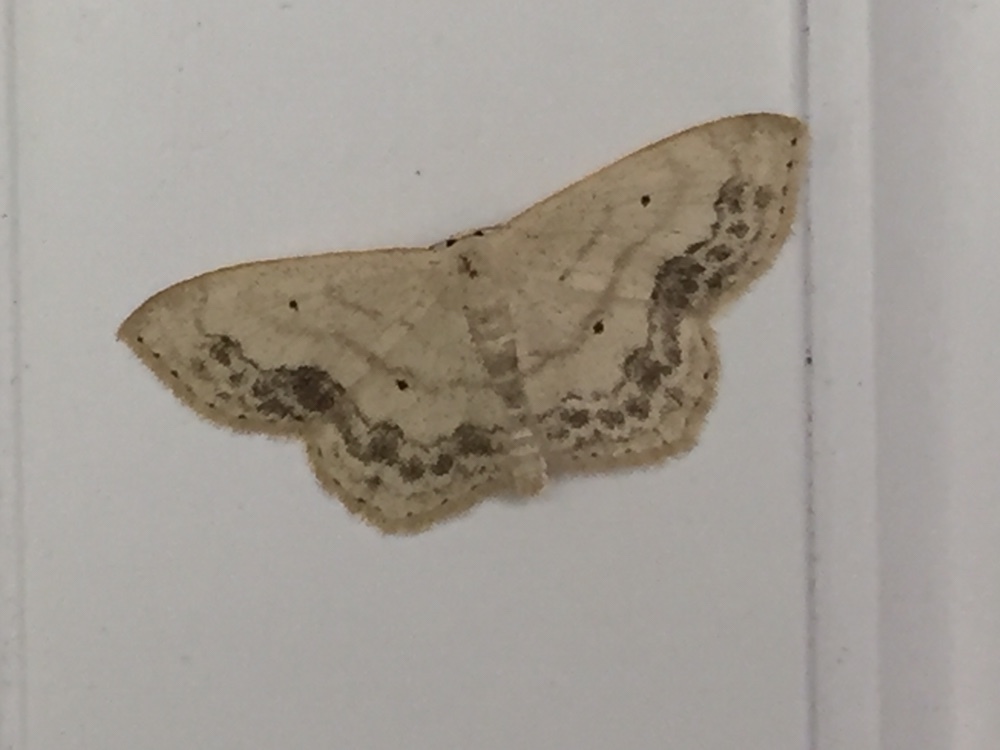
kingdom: Animalia
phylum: Arthropoda
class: Insecta
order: Lepidoptera
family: Geometridae
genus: Scopula
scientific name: Scopula limboundata
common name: Large lace border
